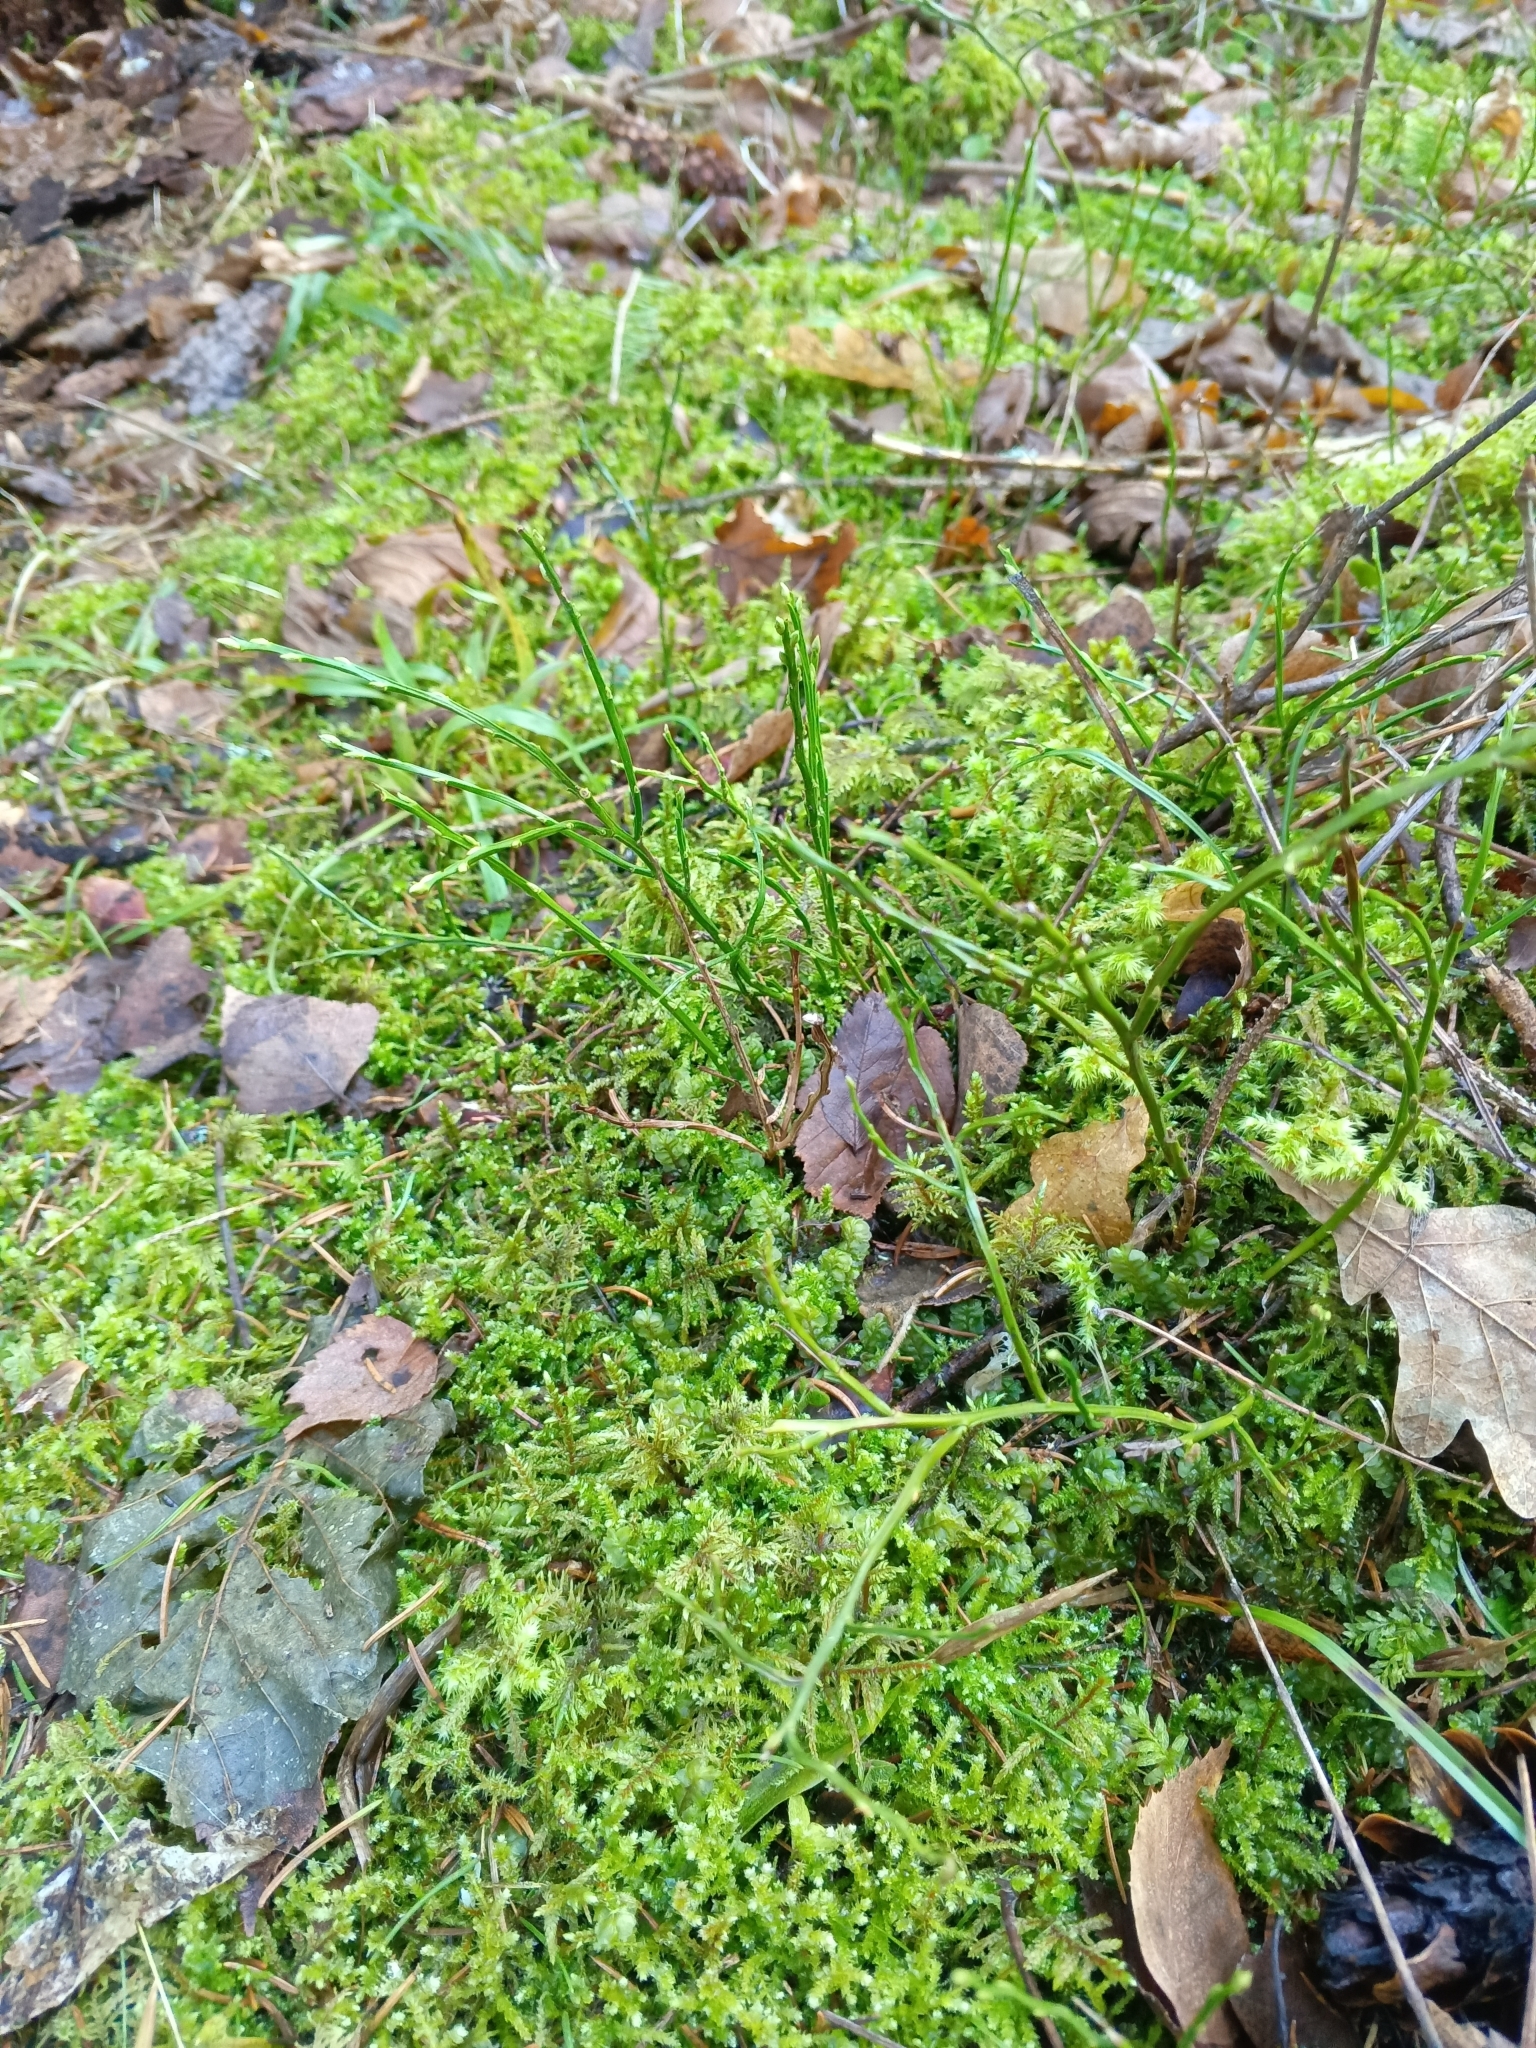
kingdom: Plantae
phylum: Tracheophyta
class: Magnoliopsida
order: Ericales
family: Ericaceae
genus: Vaccinium
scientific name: Vaccinium myrtillus
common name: Bilberry
